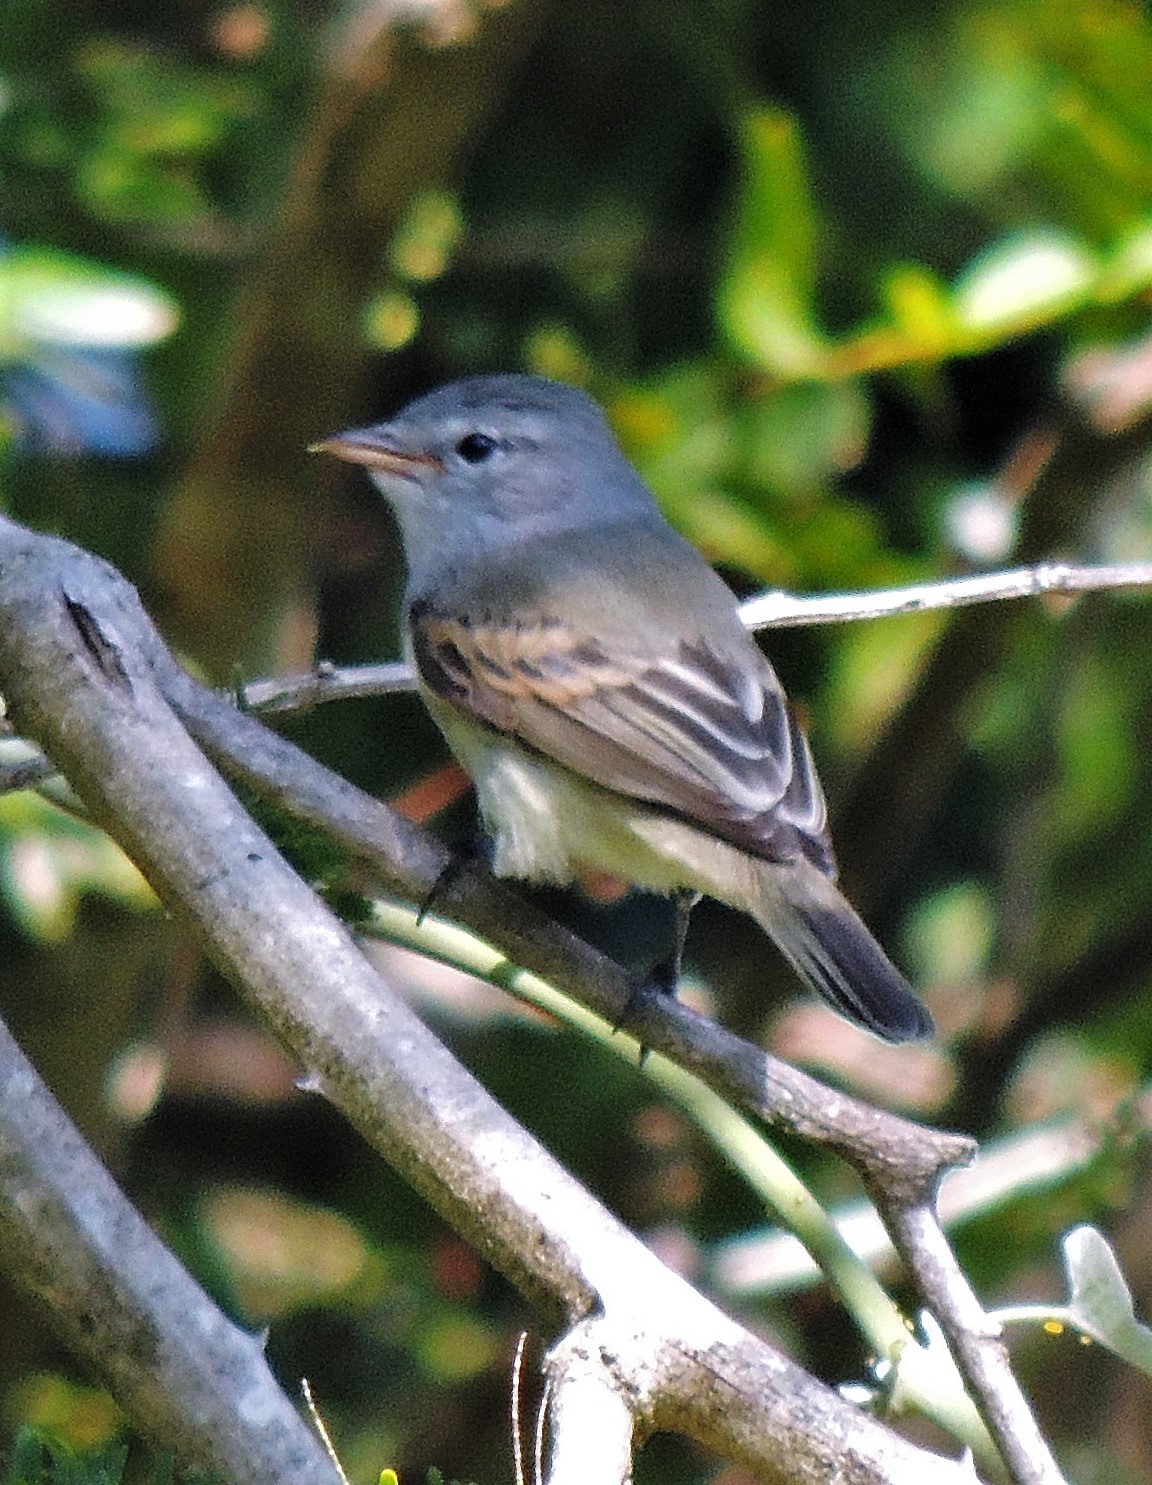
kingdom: Animalia
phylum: Chordata
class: Aves
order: Passeriformes
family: Tyrannidae
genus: Camptostoma
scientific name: Camptostoma obsoletum
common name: Southern beardless-tyrannulet
